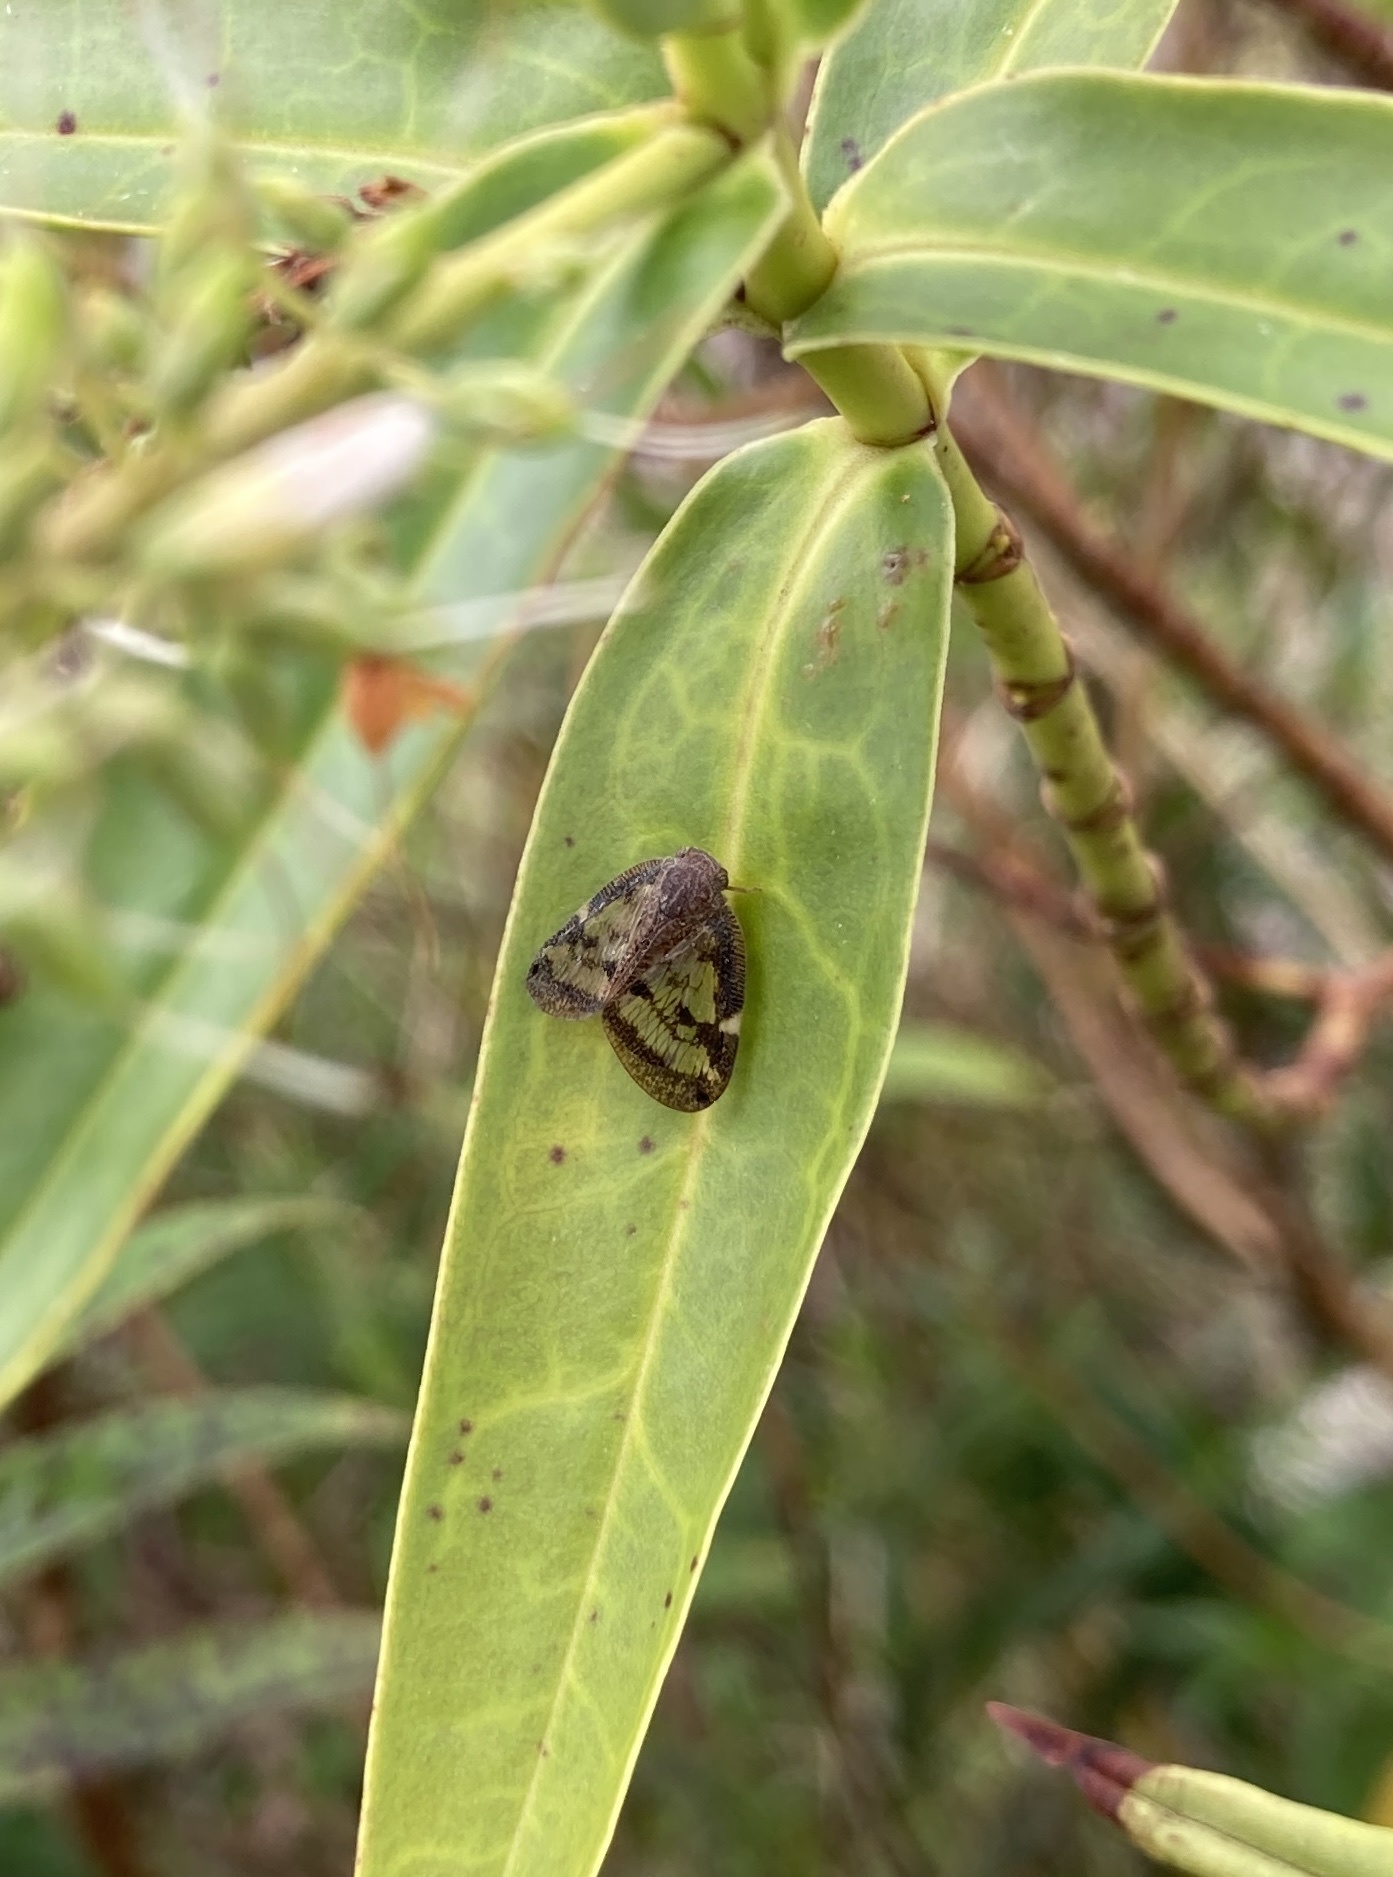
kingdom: Animalia
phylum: Arthropoda
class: Insecta
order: Hemiptera
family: Ricaniidae
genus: Scolypopa
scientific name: Scolypopa australis
